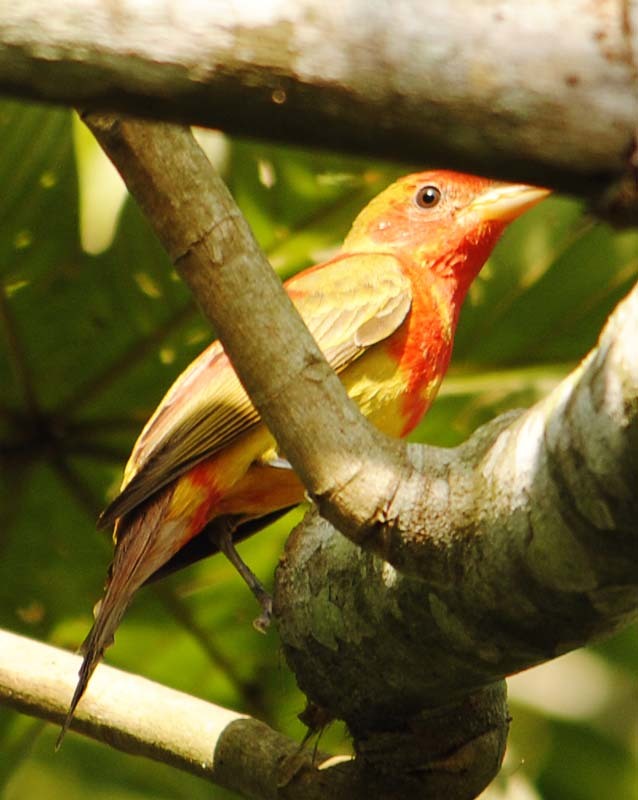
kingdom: Animalia
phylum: Chordata
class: Aves
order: Passeriformes
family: Cardinalidae
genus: Piranga
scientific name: Piranga rubra
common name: Summer tanager
